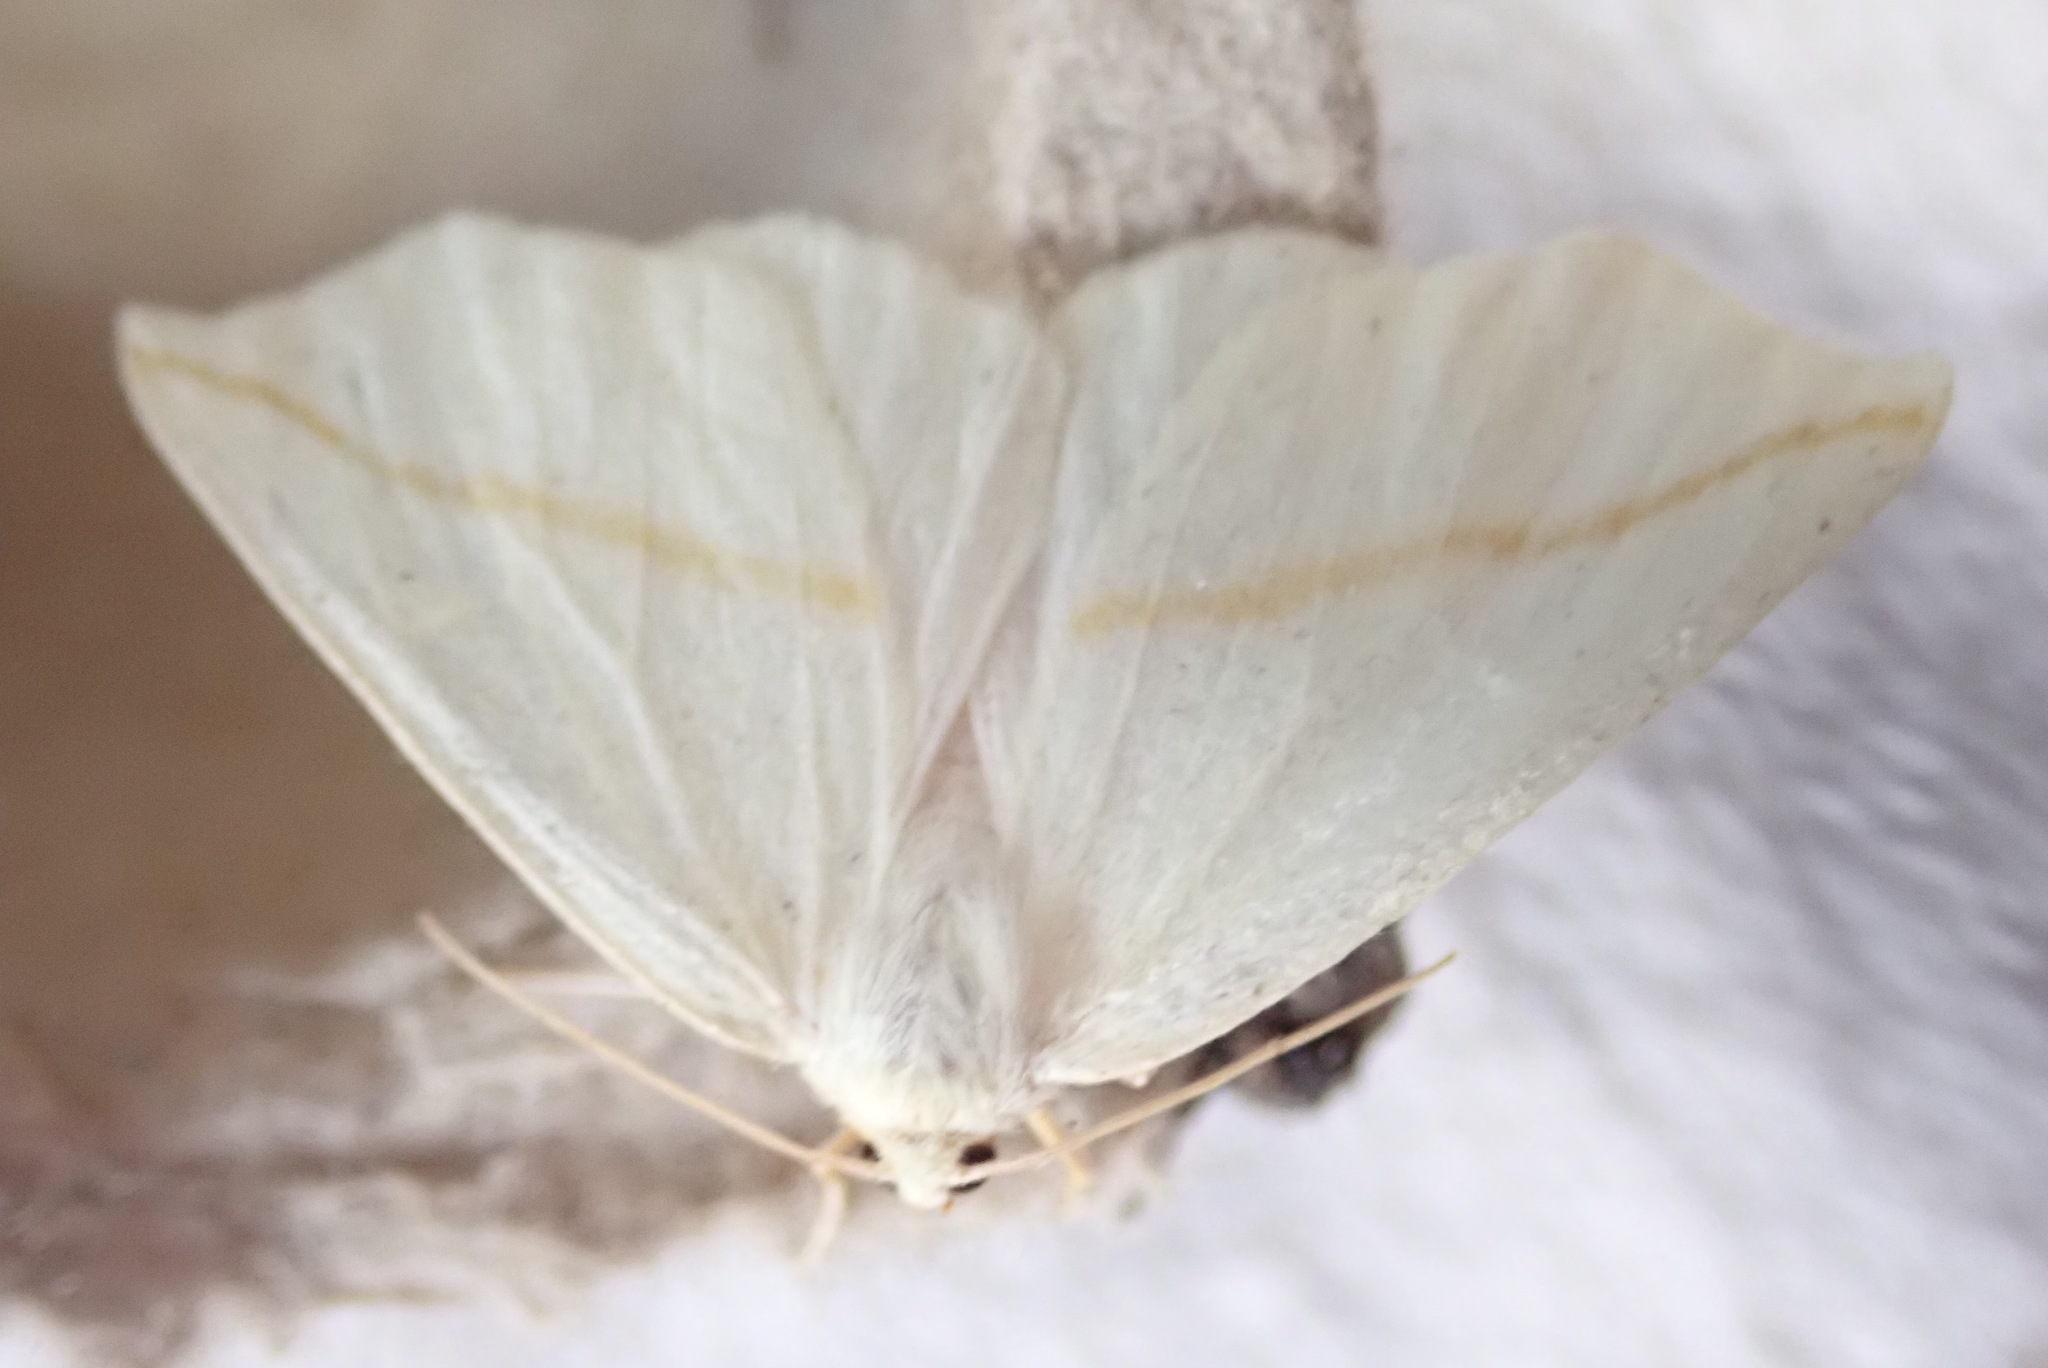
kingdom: Animalia
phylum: Arthropoda
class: Insecta
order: Lepidoptera
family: Geometridae
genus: Tetracis
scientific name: Tetracis cachexiata
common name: White slant-line
